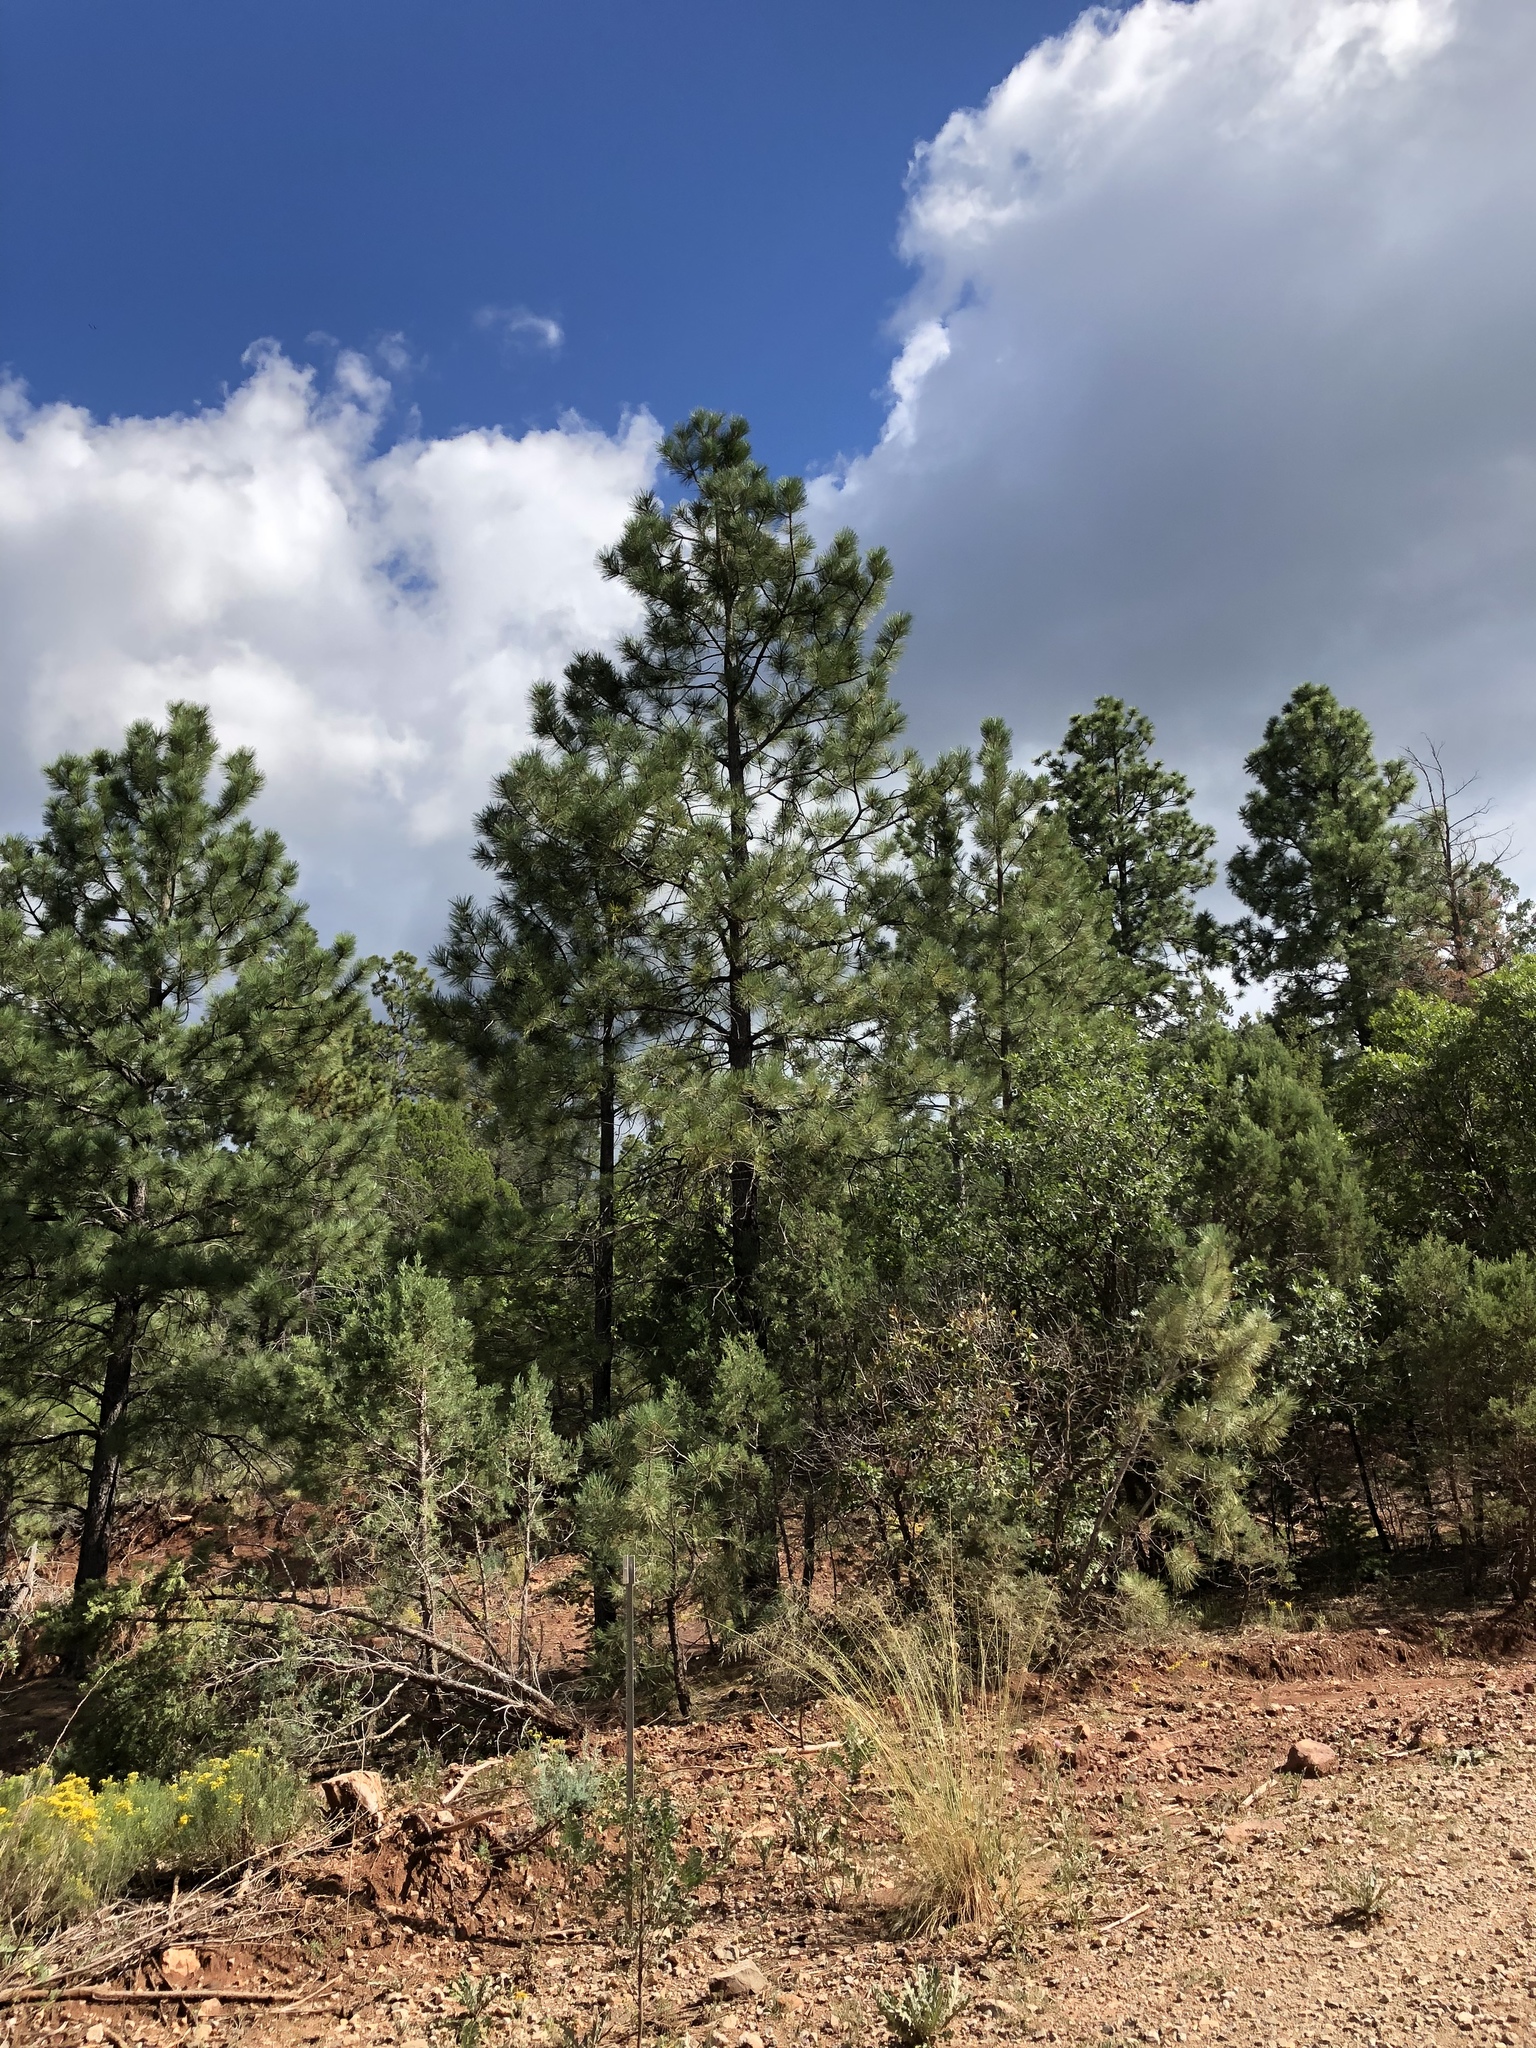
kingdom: Plantae
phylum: Tracheophyta
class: Pinopsida
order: Pinales
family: Pinaceae
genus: Pinus
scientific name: Pinus ponderosa
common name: Western yellow-pine
